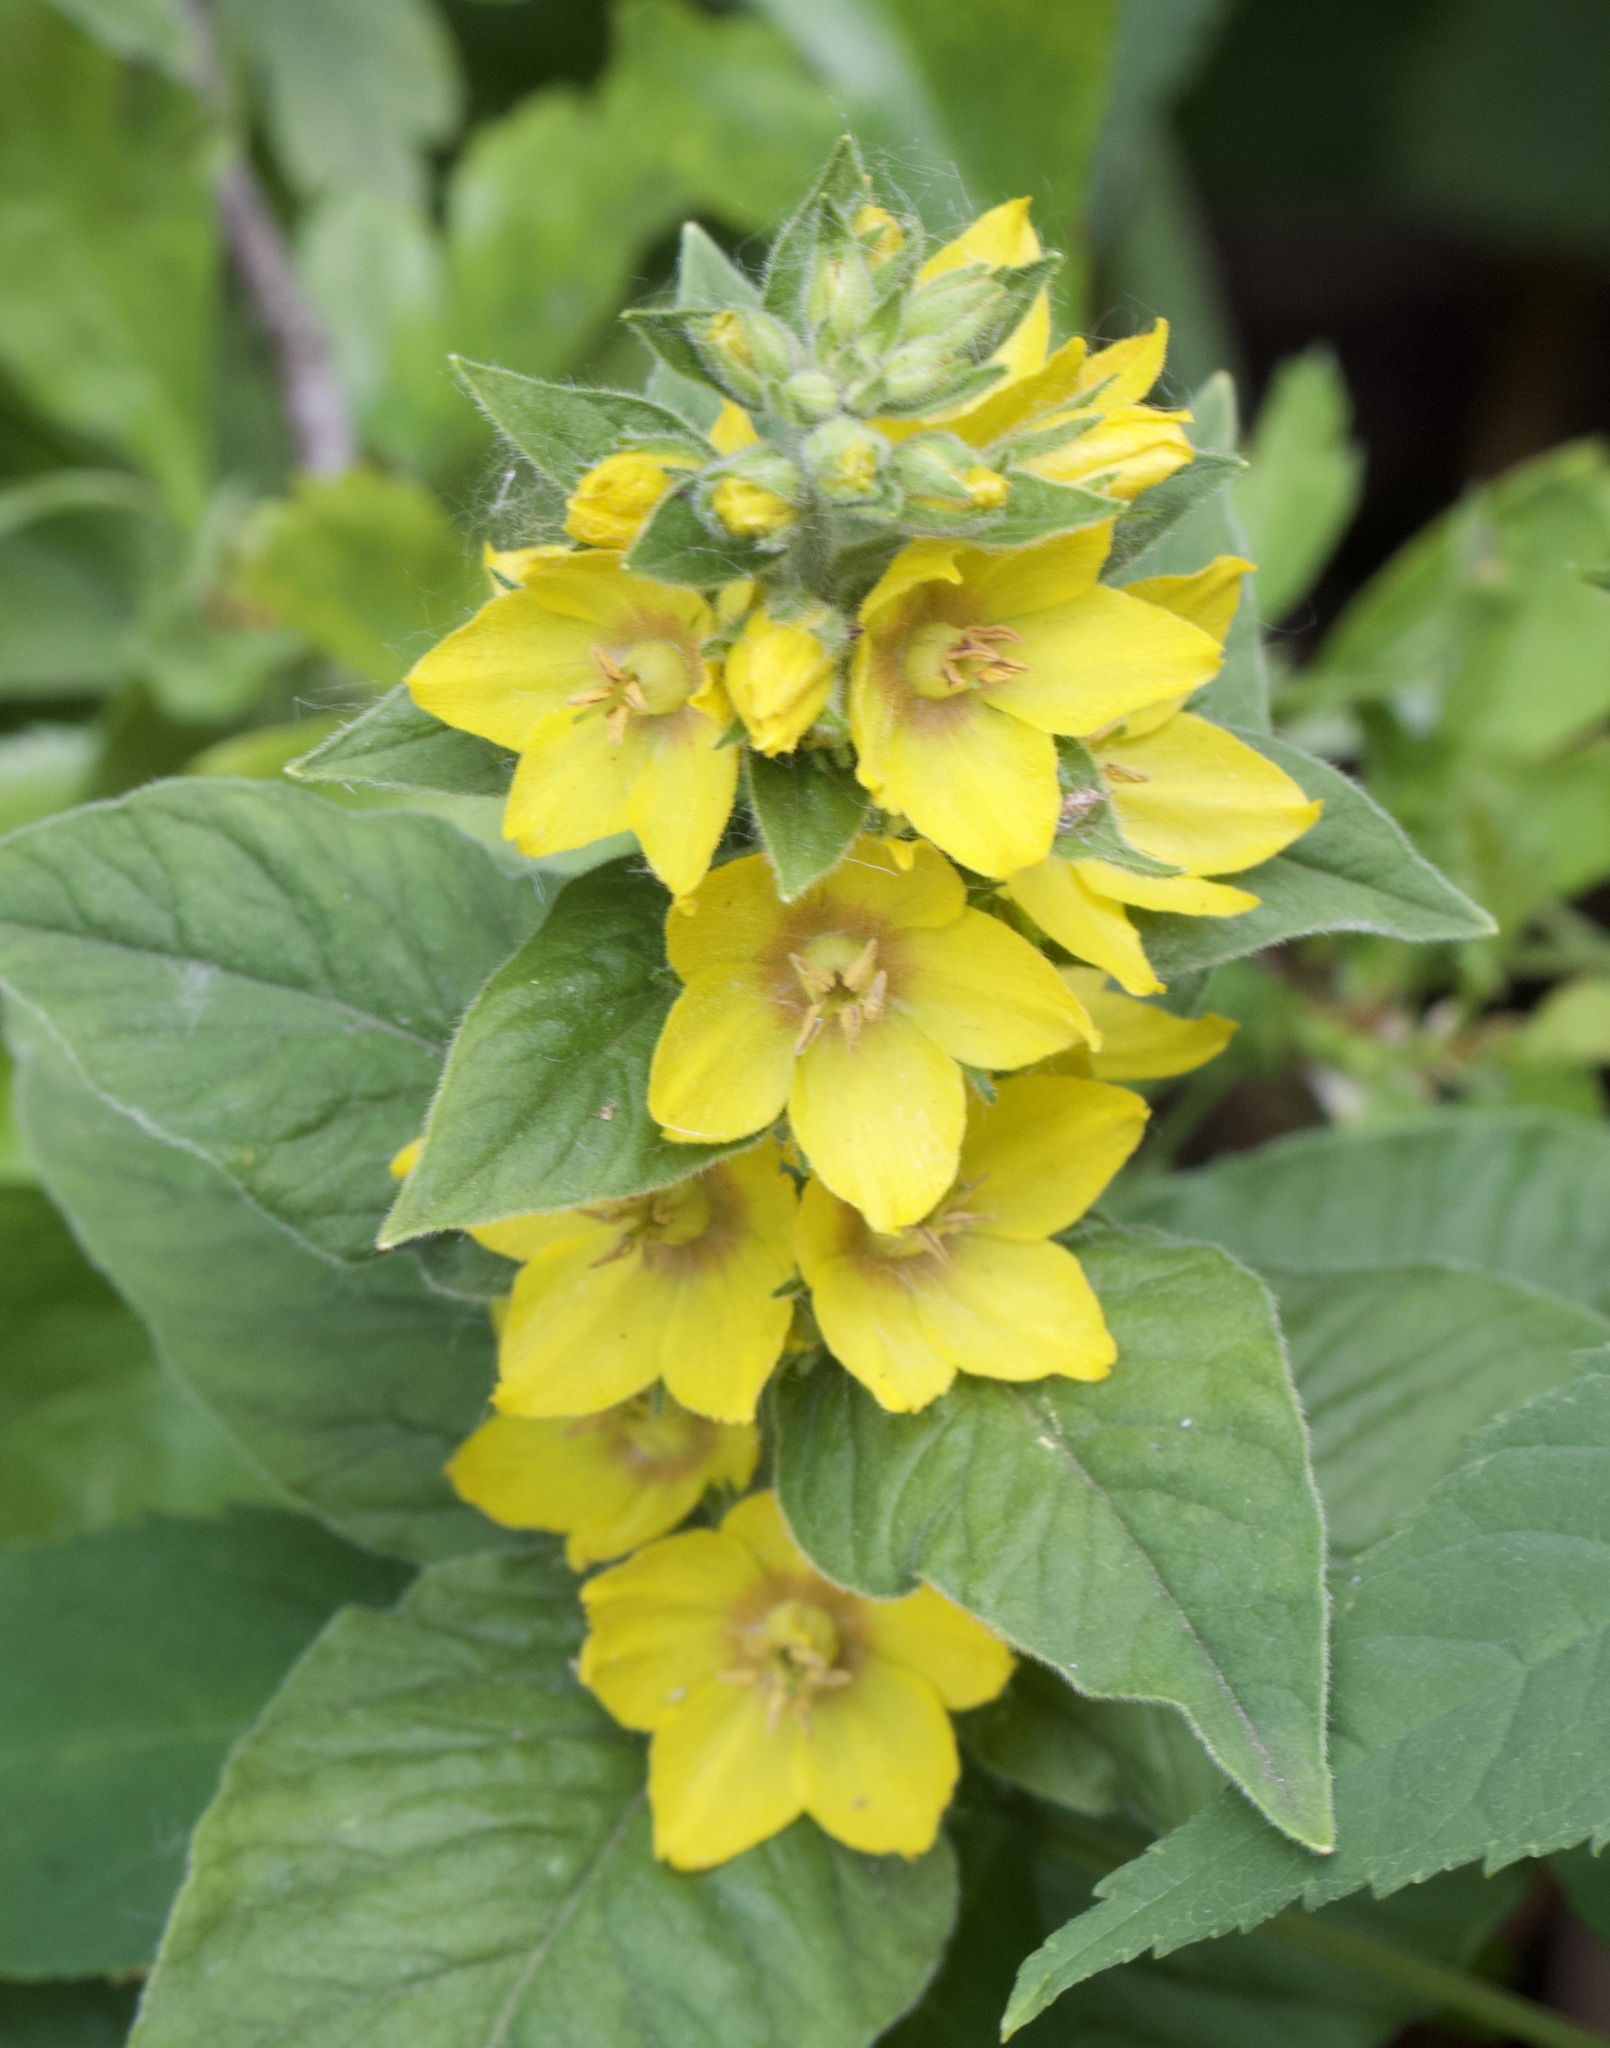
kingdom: Plantae
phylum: Tracheophyta
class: Magnoliopsida
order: Ericales
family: Primulaceae
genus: Lysimachia
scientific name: Lysimachia punctata
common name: Dotted loosestrife
